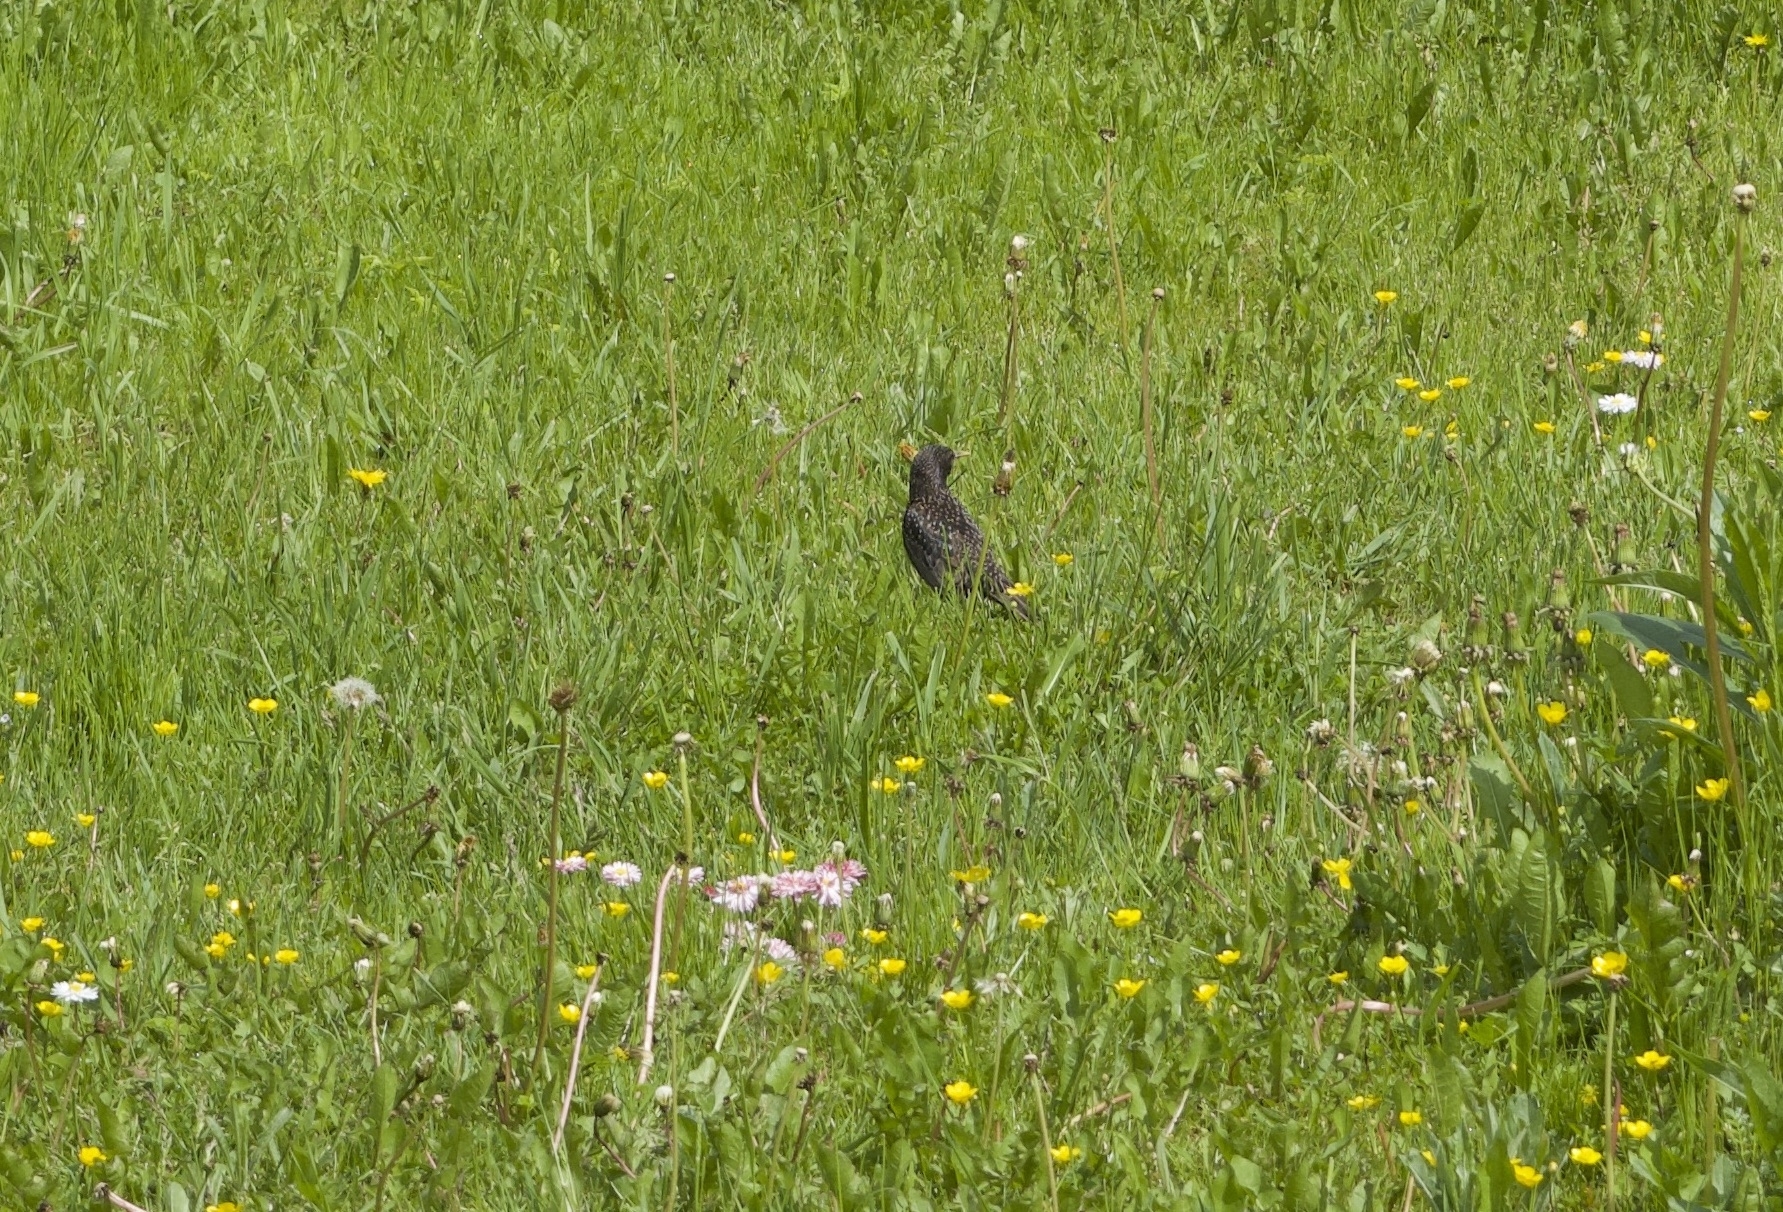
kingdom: Animalia
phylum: Chordata
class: Aves
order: Passeriformes
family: Sturnidae
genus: Sturnus
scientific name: Sturnus vulgaris
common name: Common starling
